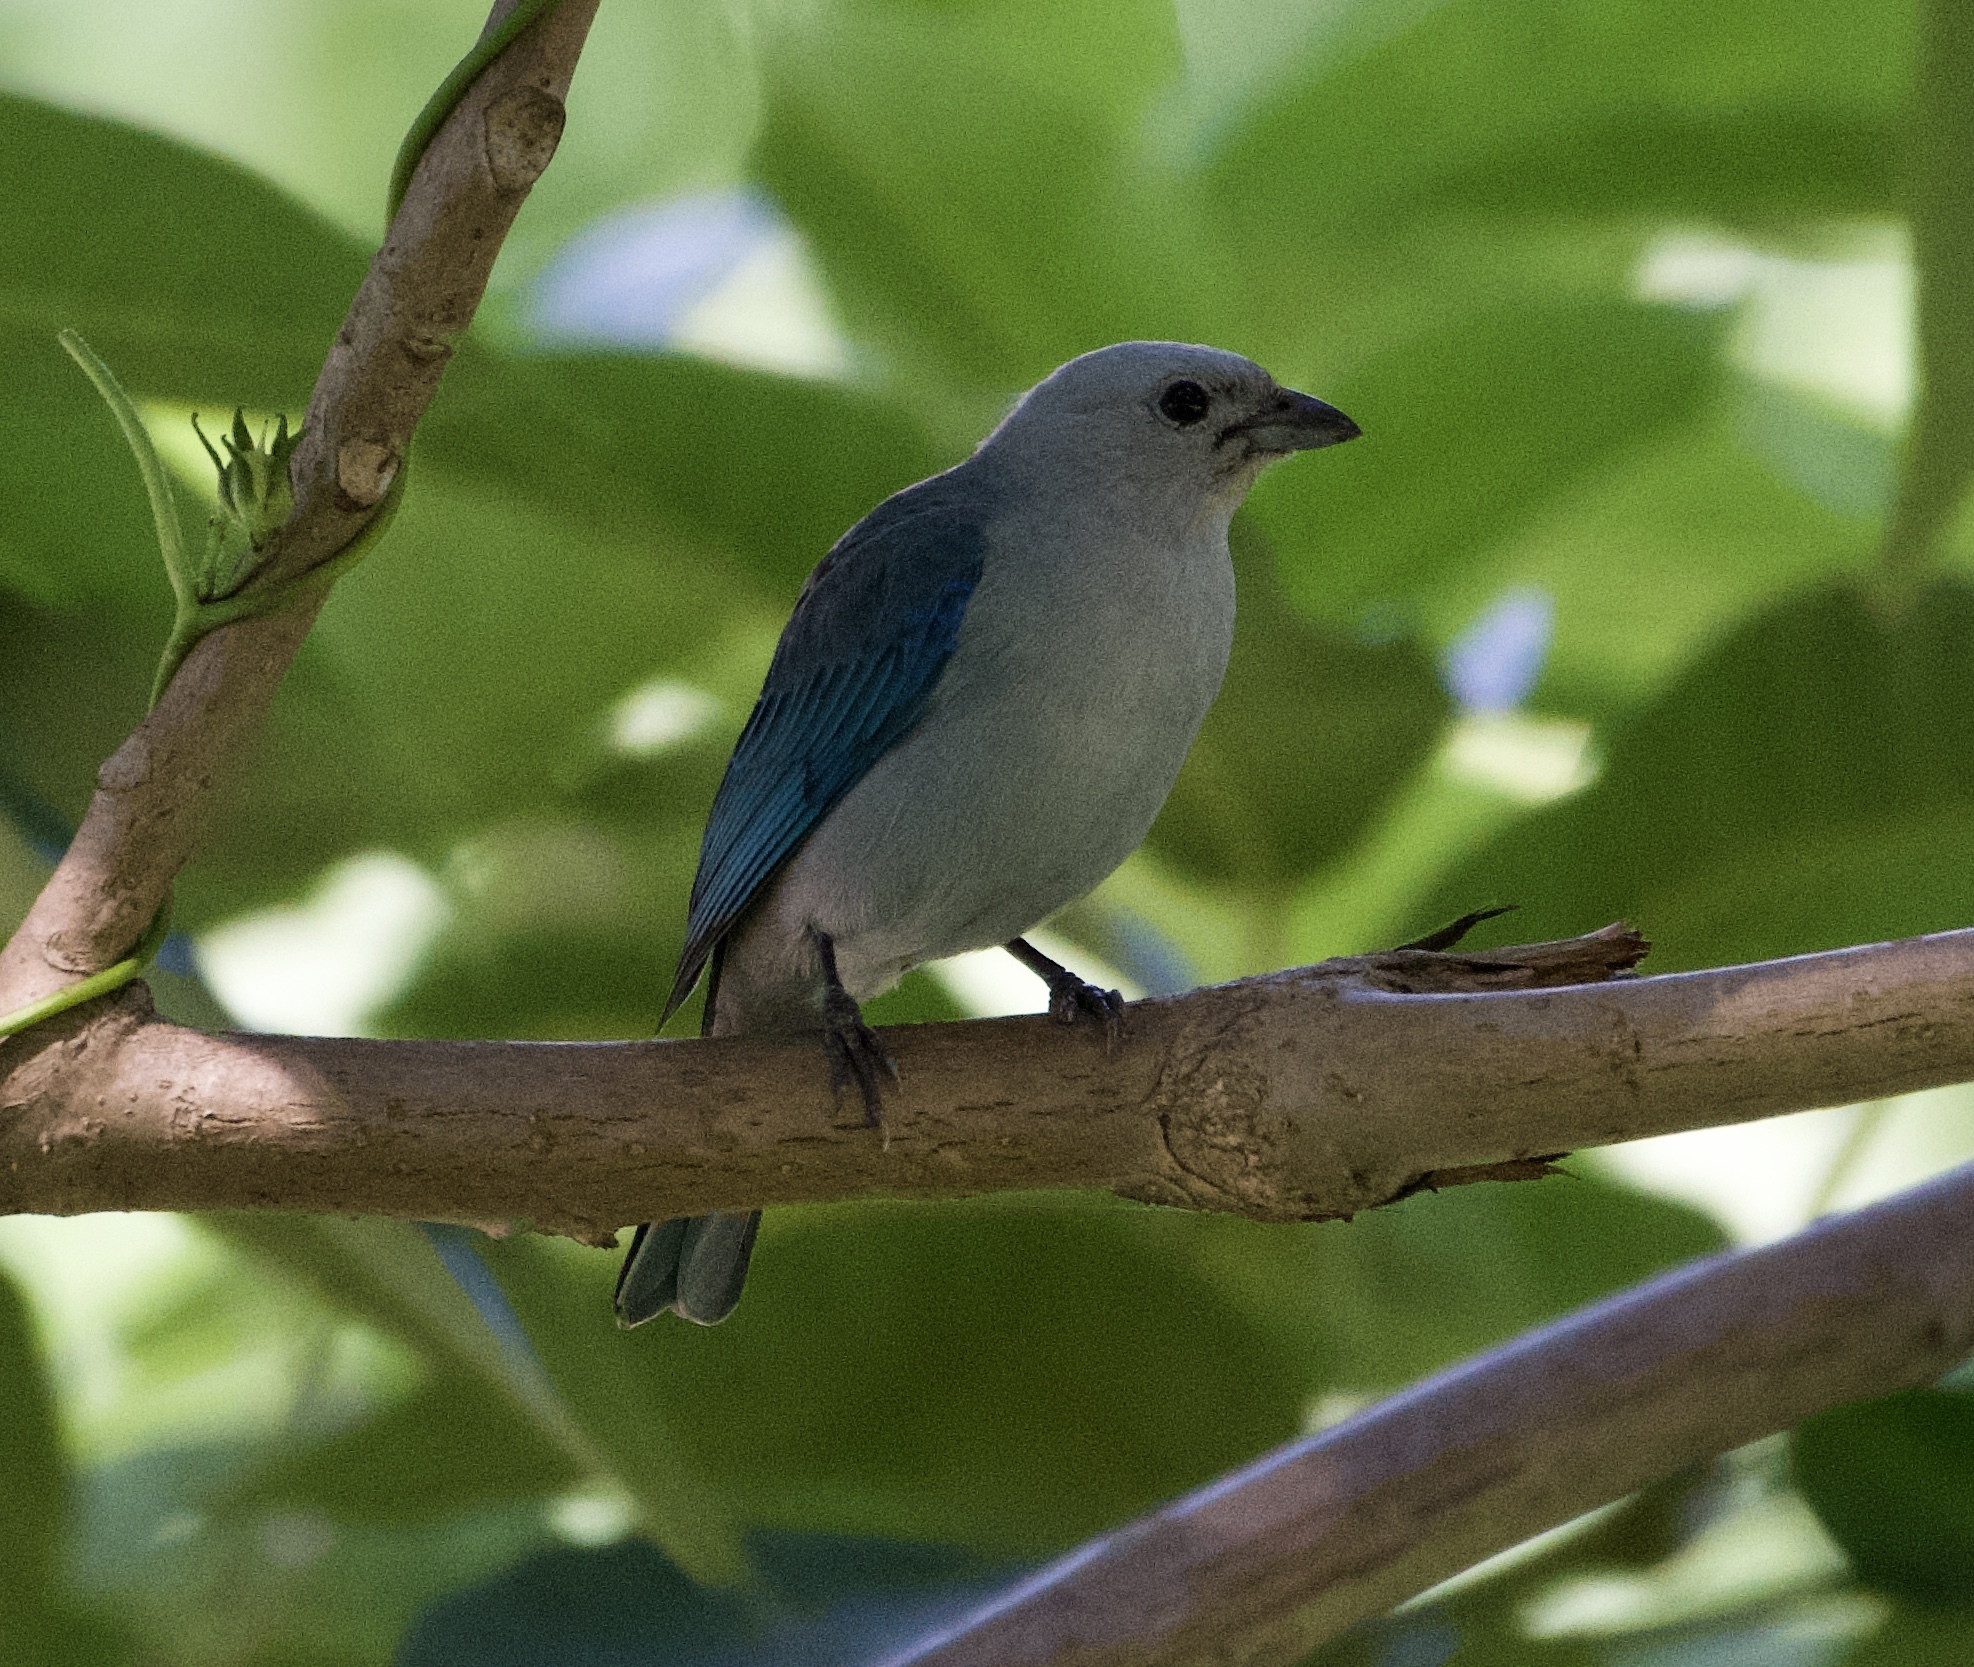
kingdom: Animalia
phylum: Chordata
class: Aves
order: Passeriformes
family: Thraupidae
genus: Thraupis
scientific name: Thraupis episcopus
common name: Blue-grey tanager
